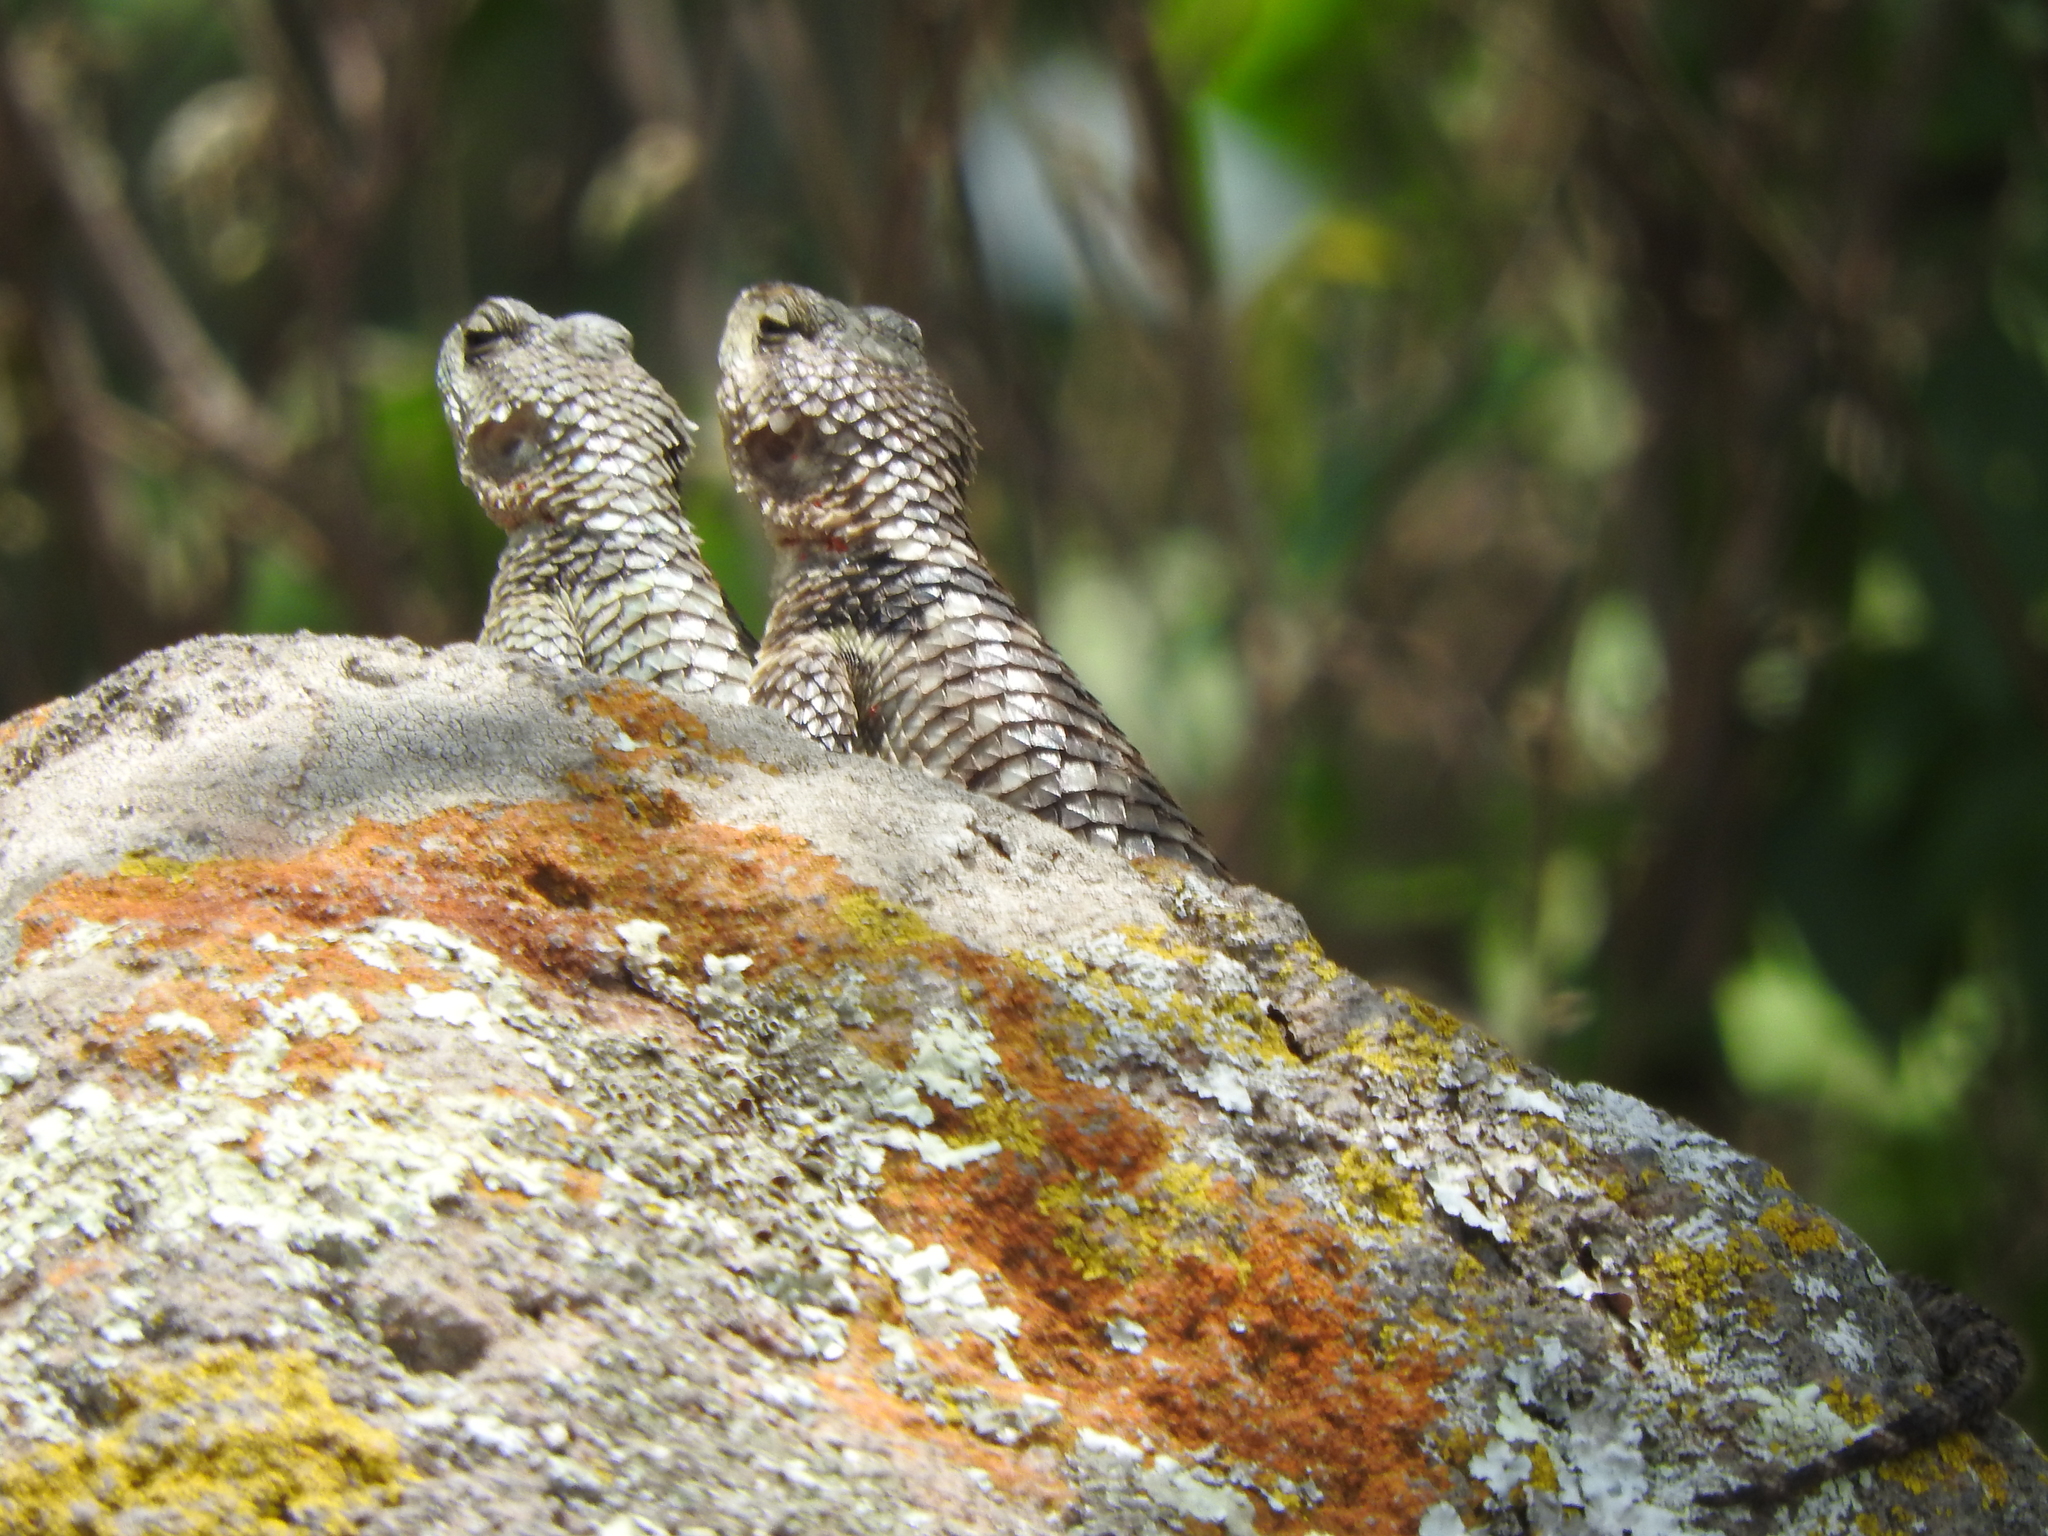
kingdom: Animalia
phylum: Chordata
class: Squamata
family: Phrynosomatidae
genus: Sceloporus
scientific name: Sceloporus torquatus
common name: Central plateau torquate lizard [melanogaster]
